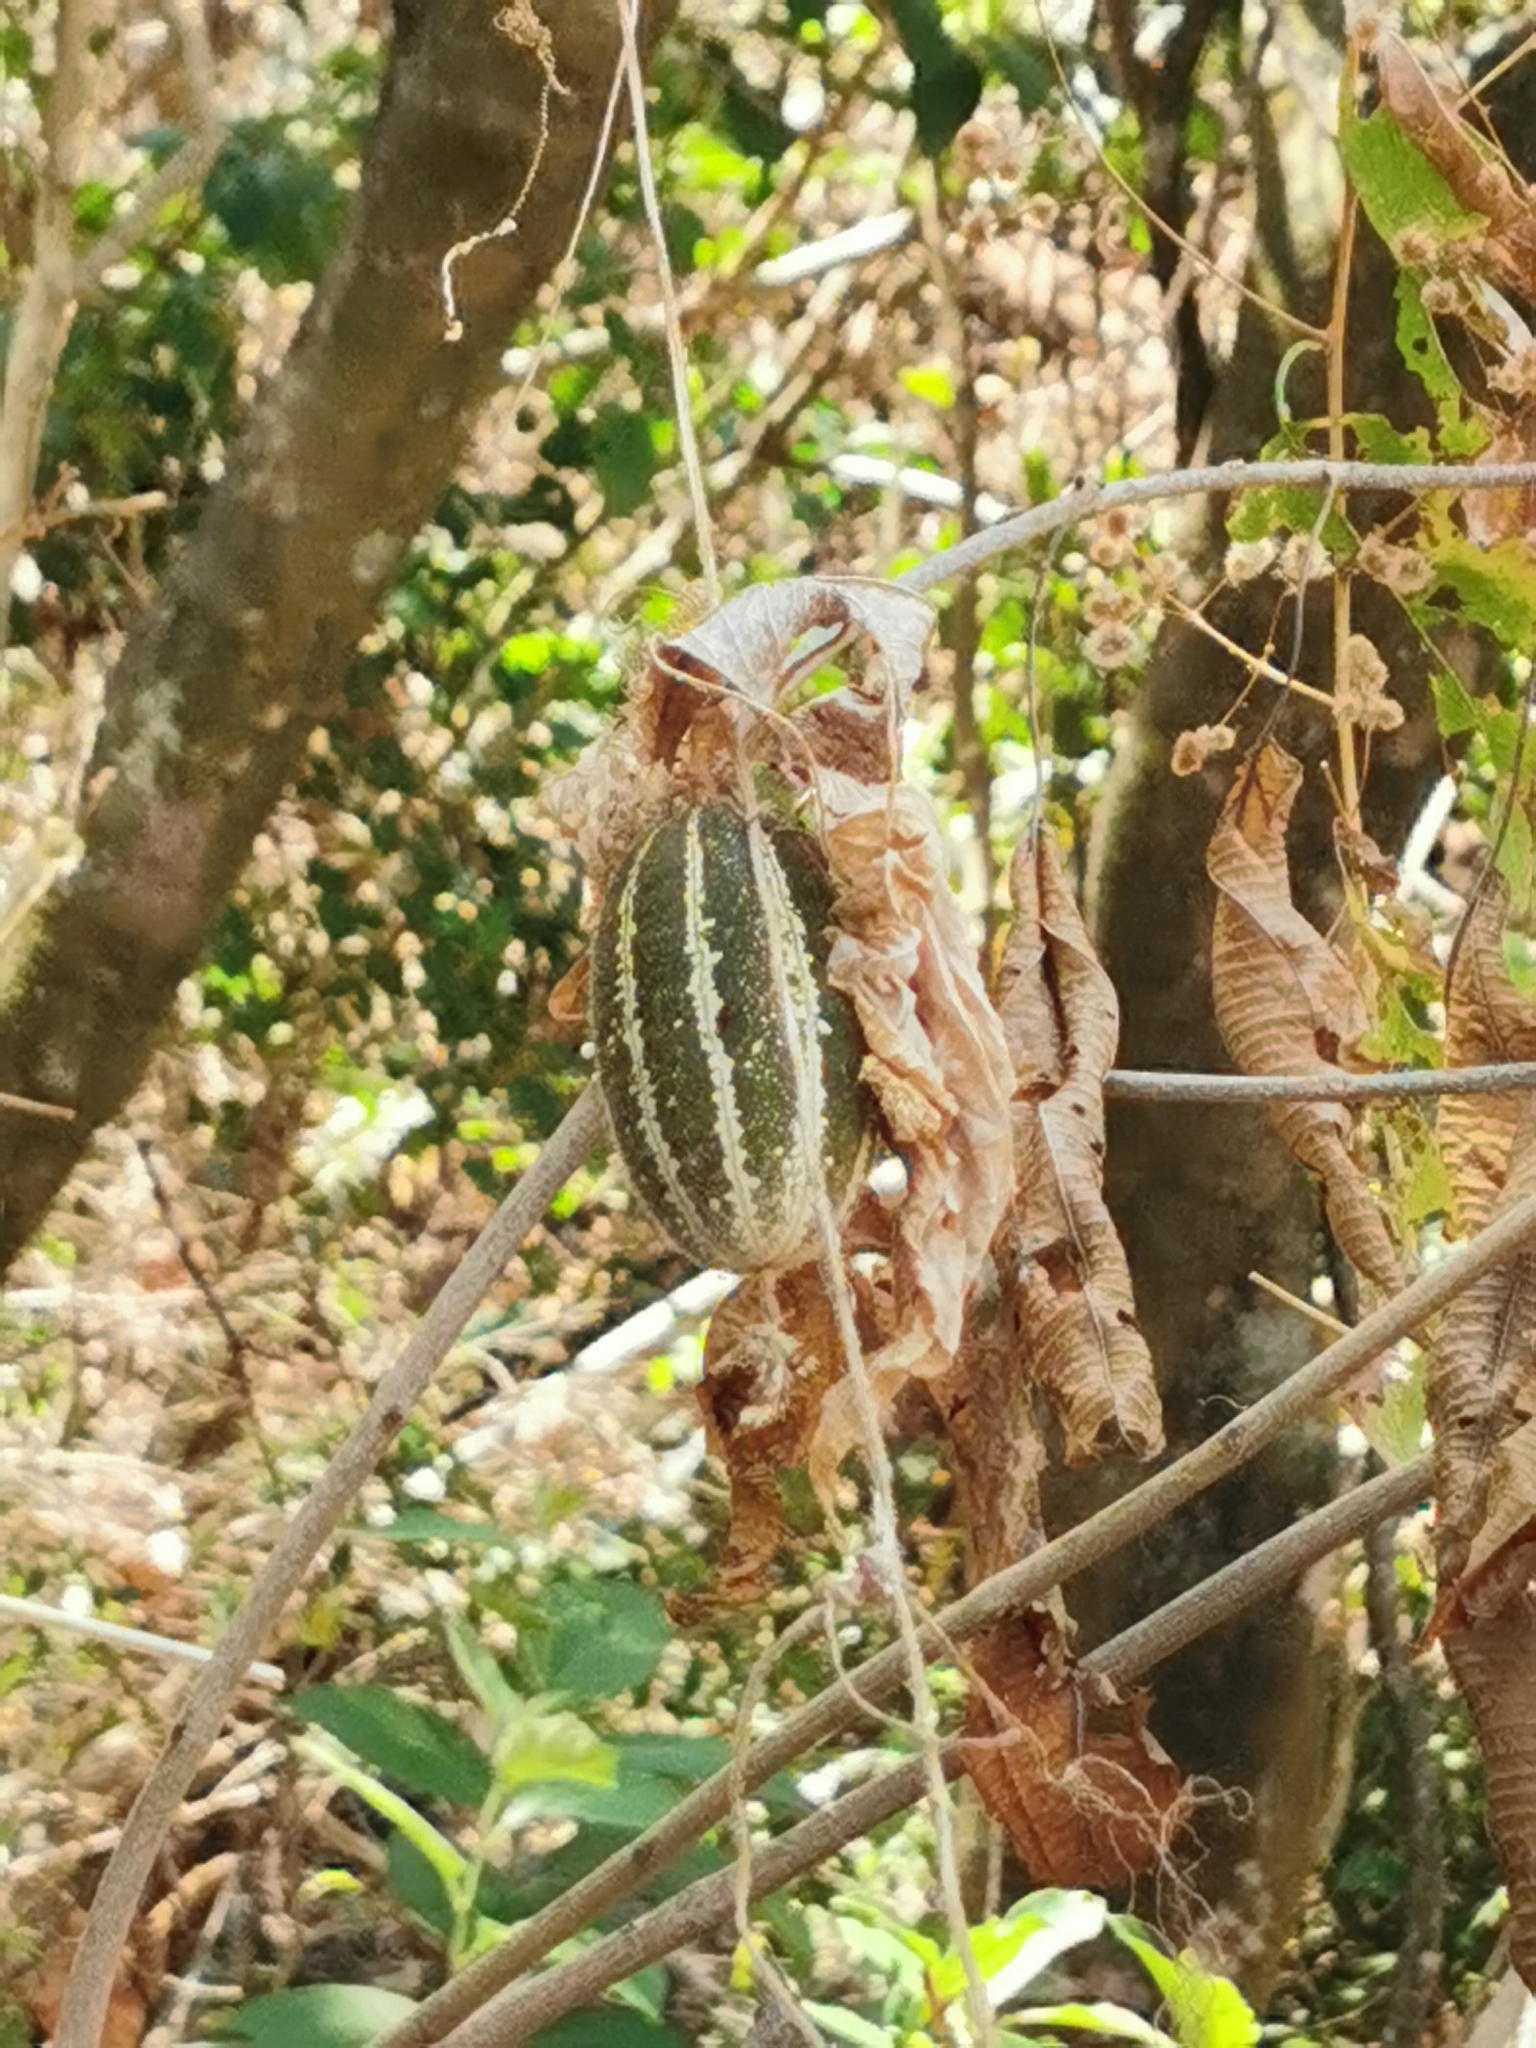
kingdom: Plantae
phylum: Tracheophyta
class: Magnoliopsida
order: Cucurbitales
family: Cucurbitaceae
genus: Polyclathra
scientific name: Polyclathra cucumerina
